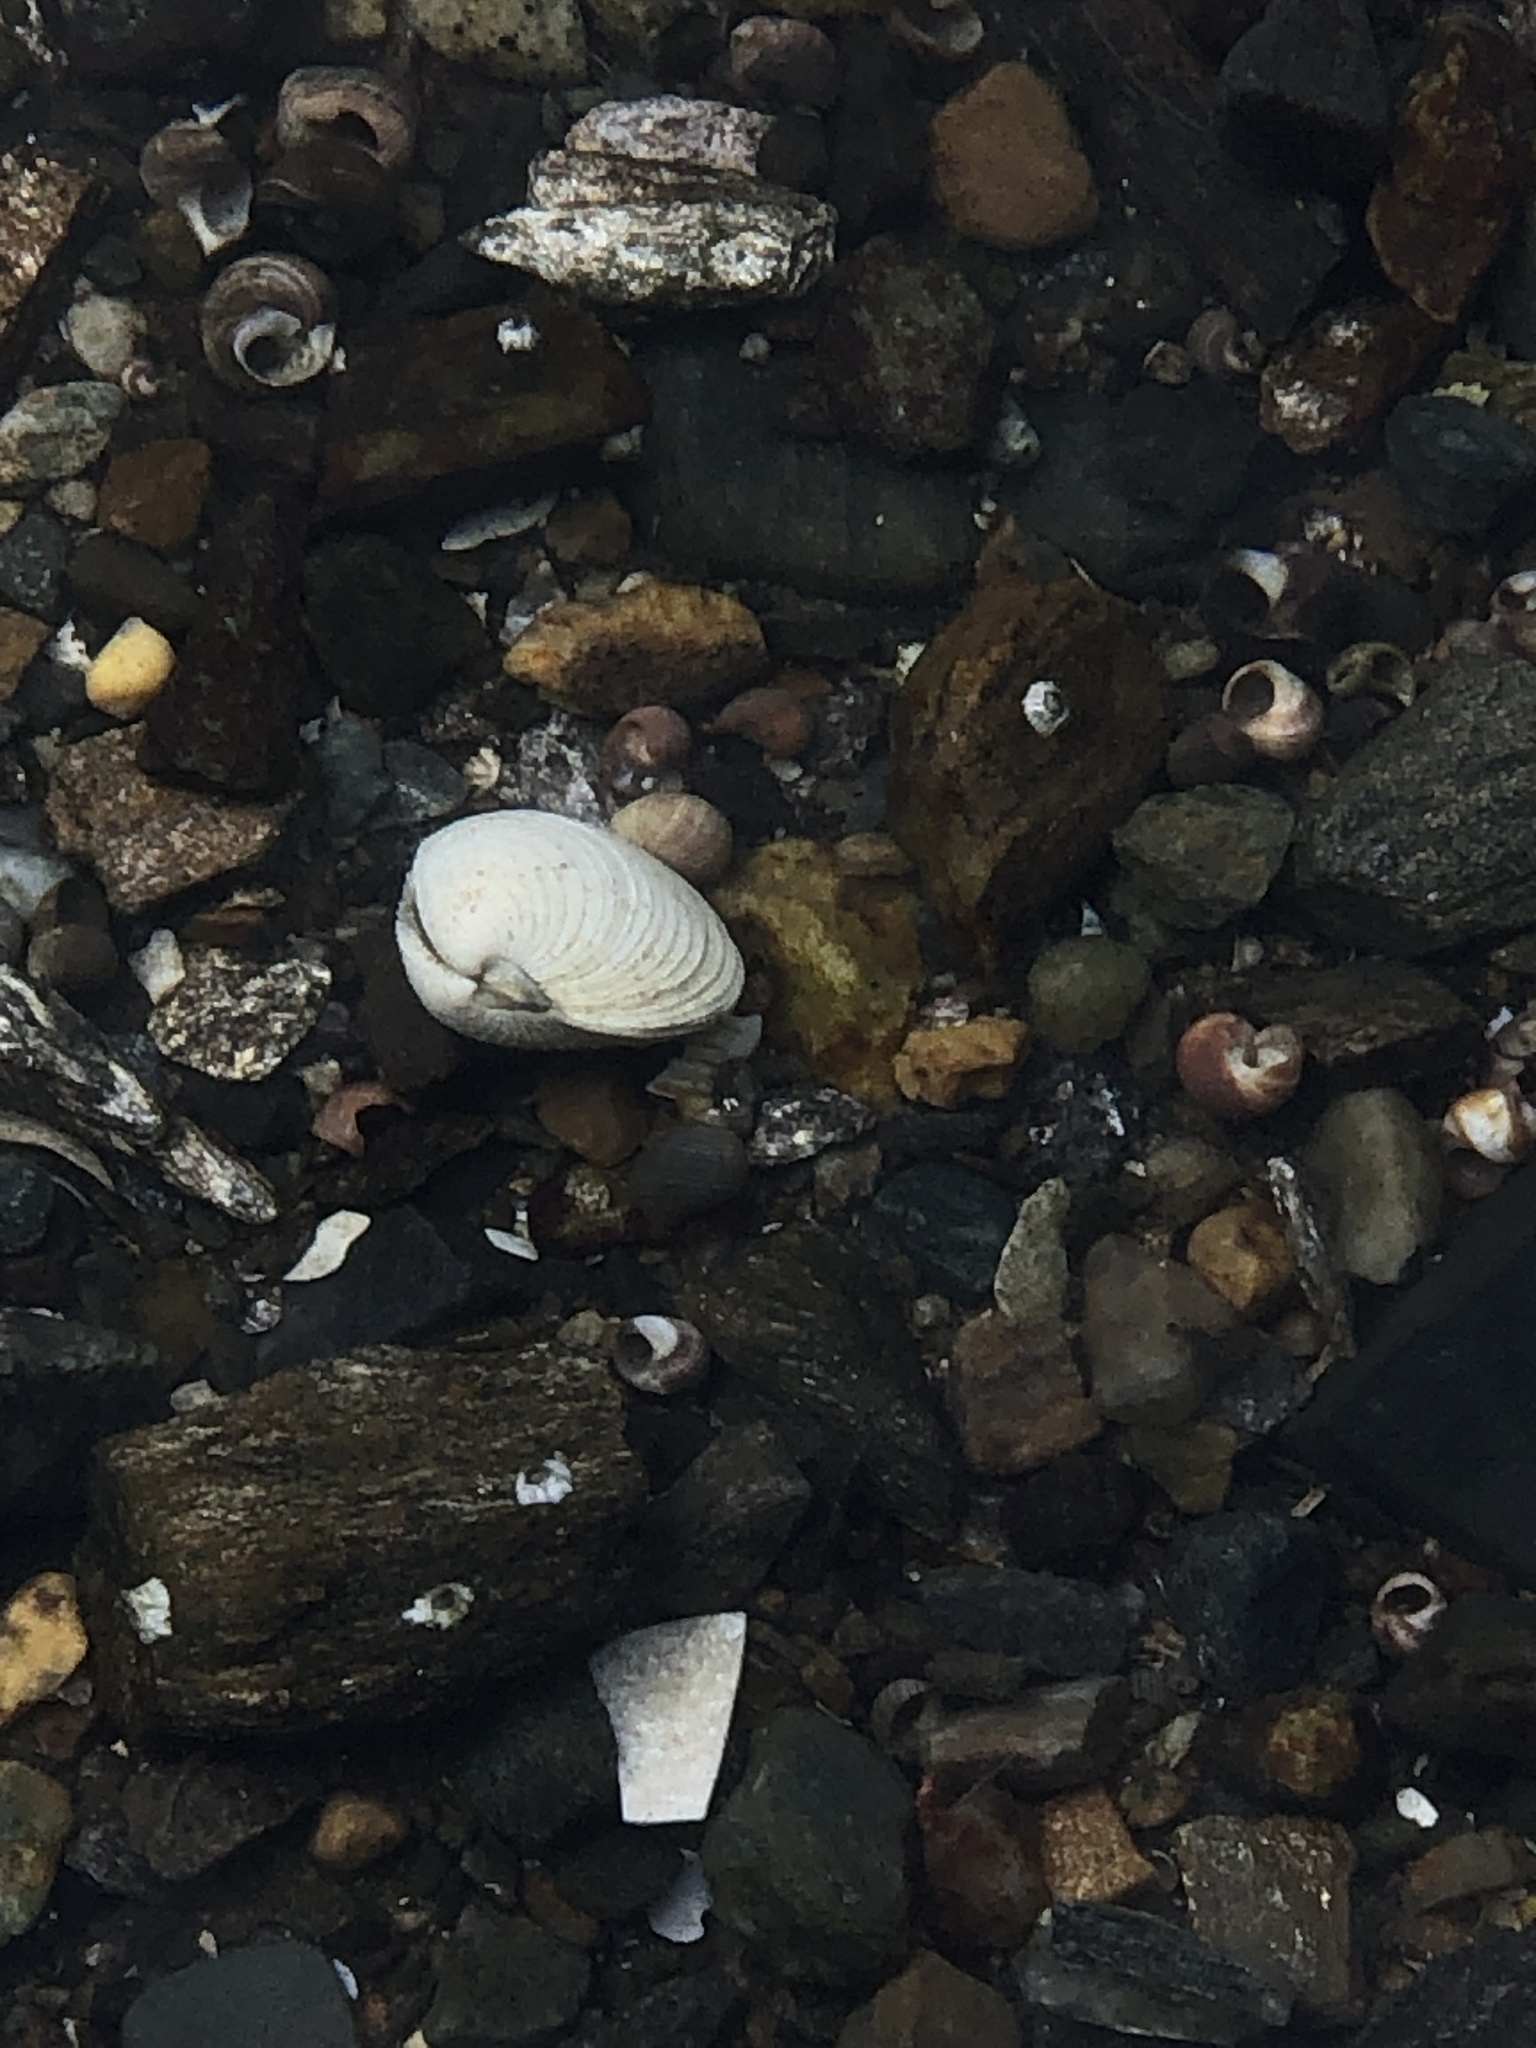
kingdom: Animalia
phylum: Mollusca
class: Bivalvia
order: Venerida
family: Veneridae
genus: Mercenaria
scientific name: Mercenaria mercenaria
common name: American hard-shelled clam
